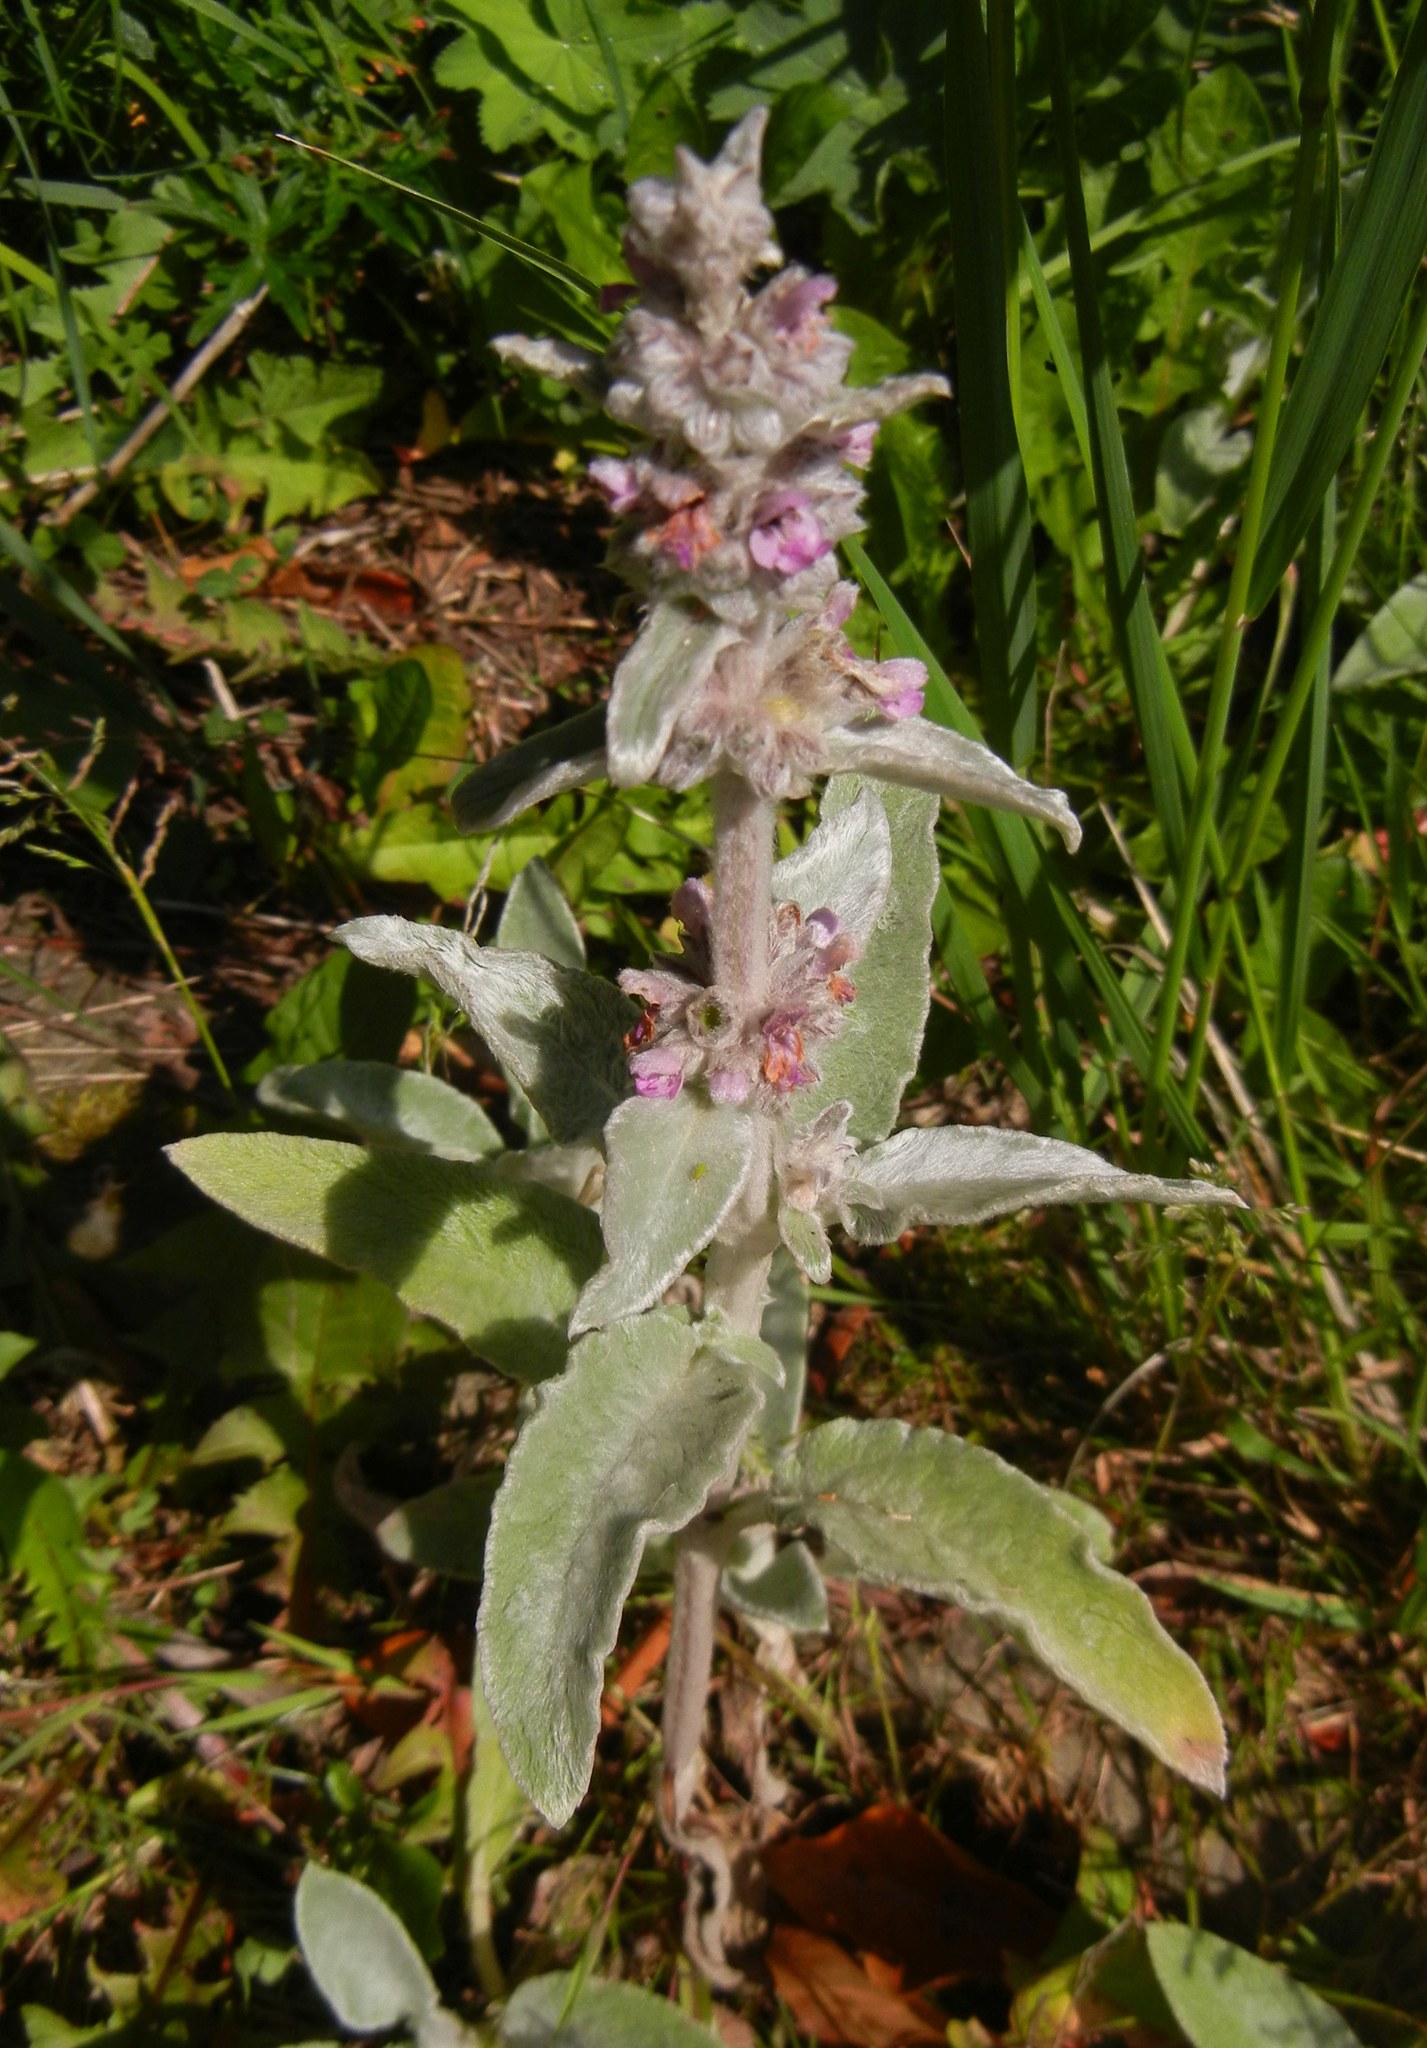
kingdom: Plantae
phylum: Tracheophyta
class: Magnoliopsida
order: Lamiales
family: Lamiaceae
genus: Stachys
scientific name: Stachys byzantina
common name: Lamb's-ear
